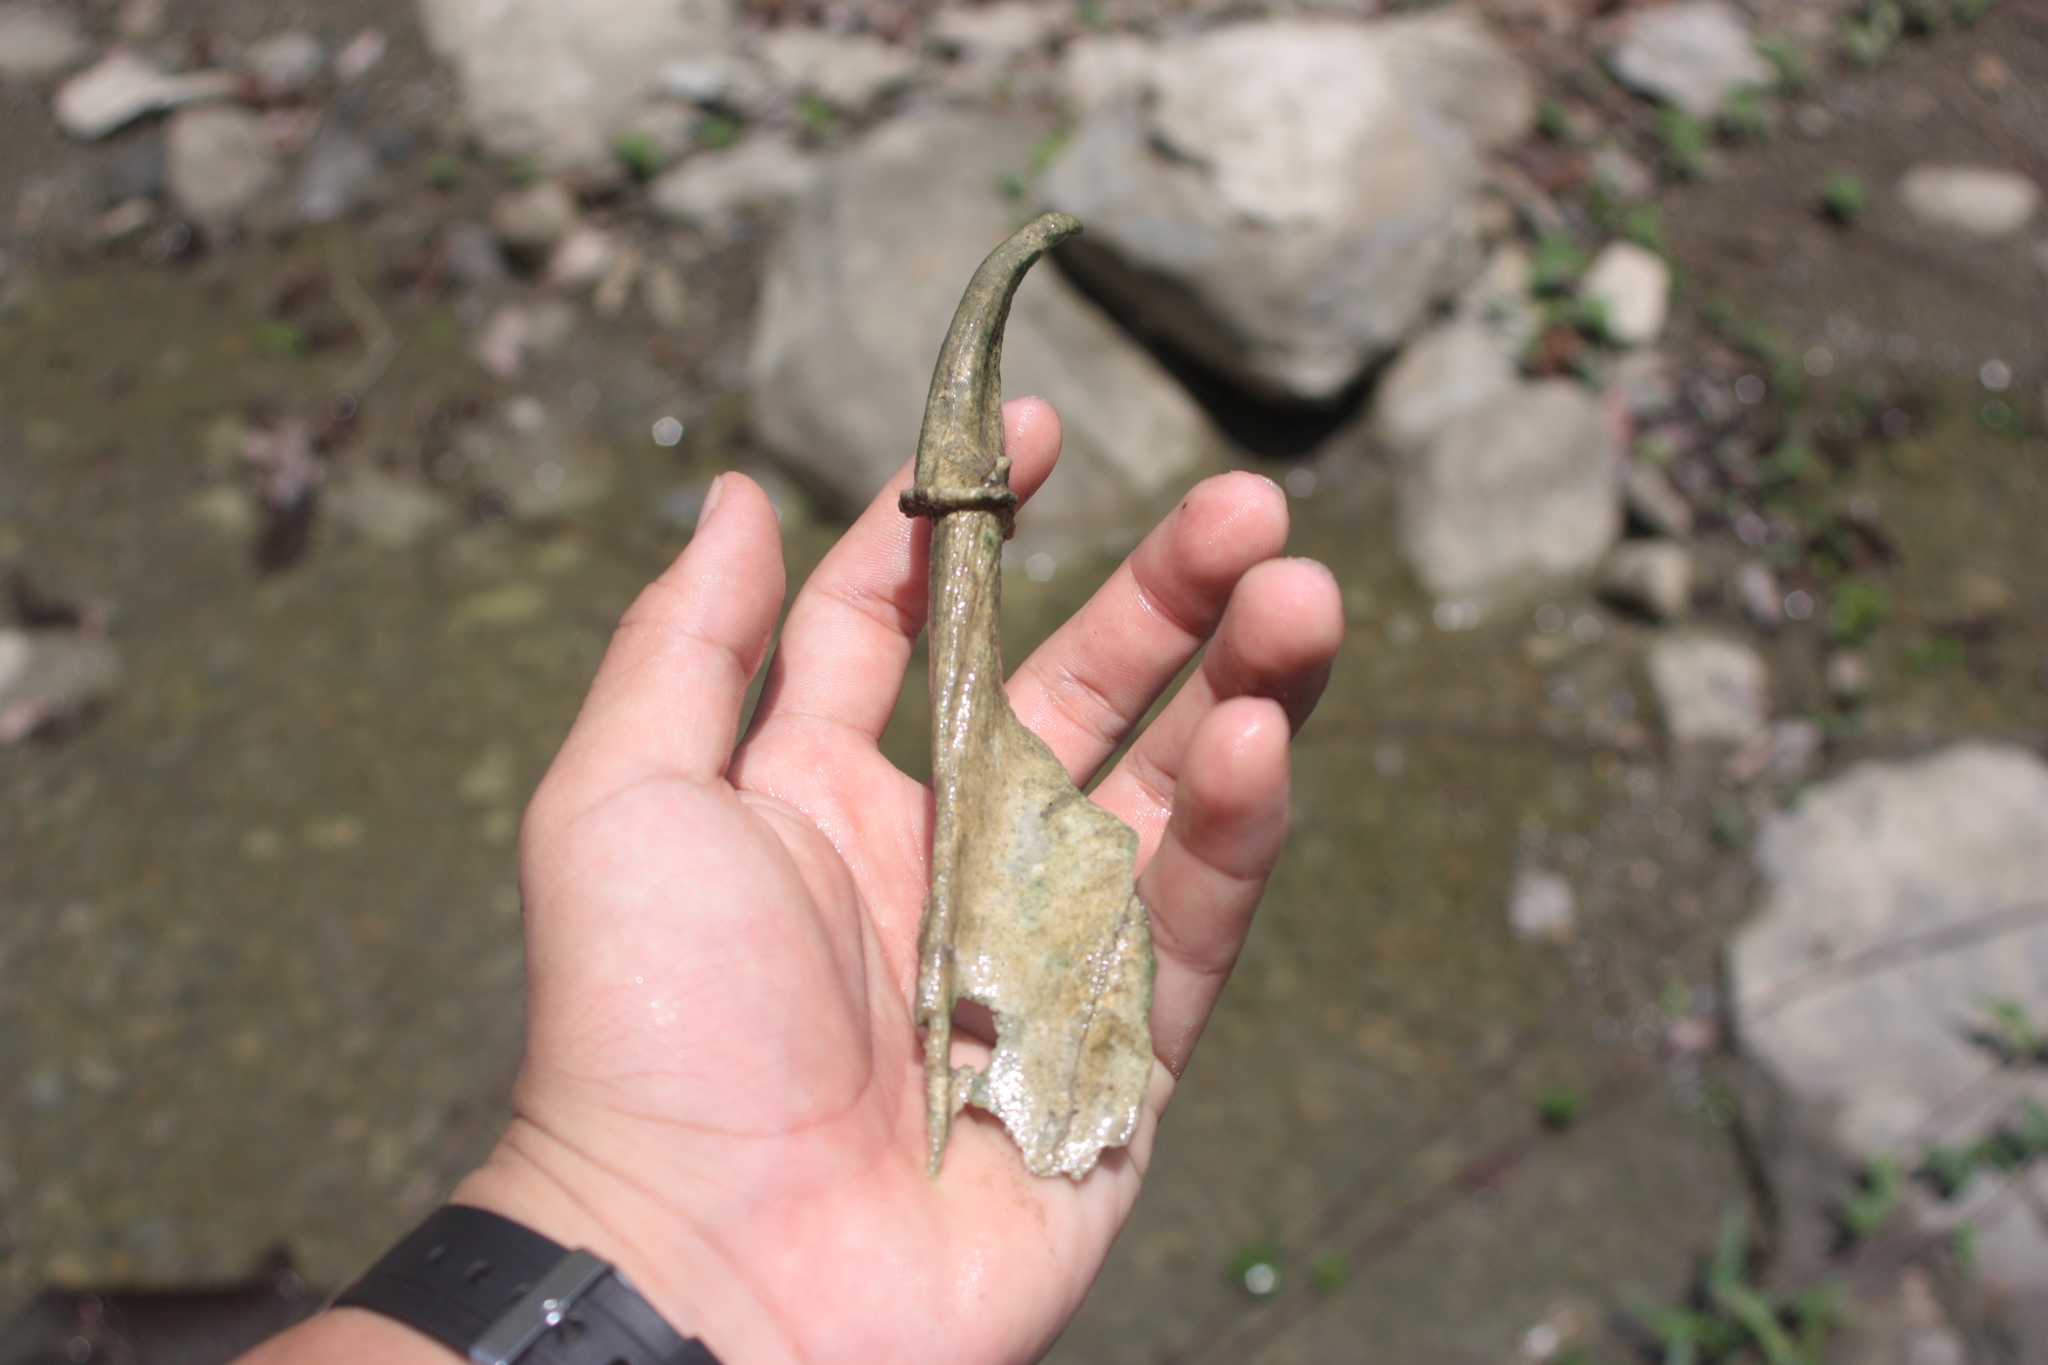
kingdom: Animalia
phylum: Chordata
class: Mammalia
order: Artiodactyla
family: Cervidae
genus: Muntiacus
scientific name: Muntiacus reevesi
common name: Reeves' muntjac
